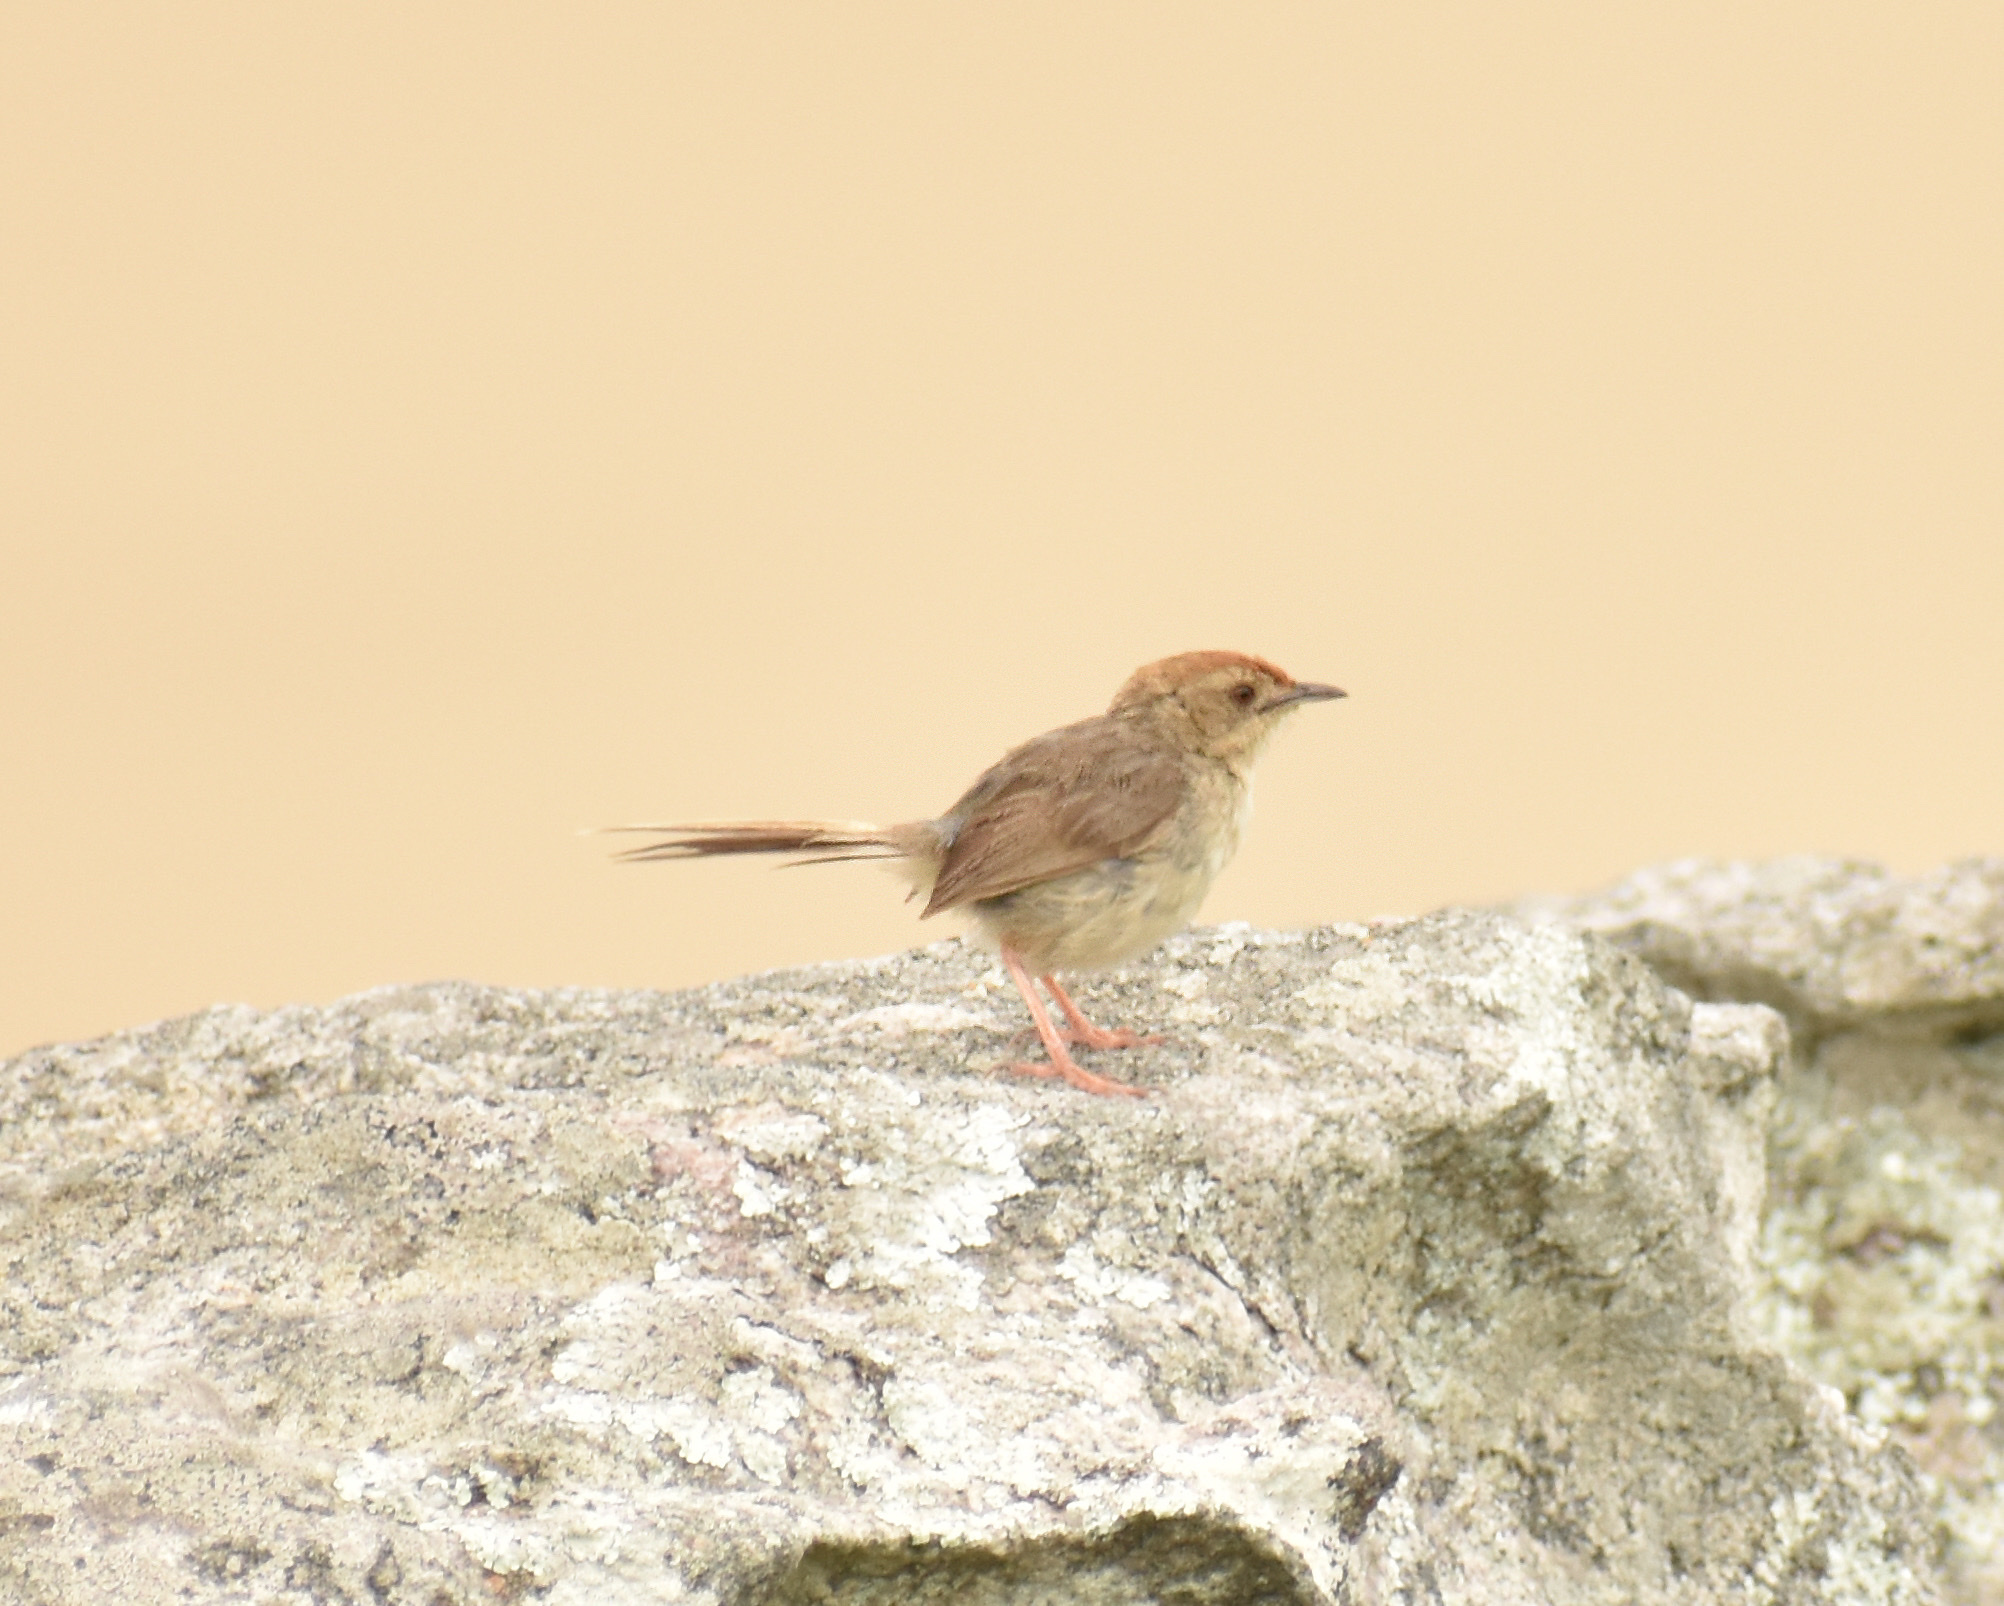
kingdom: Animalia
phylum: Chordata
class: Aves
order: Passeriformes
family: Cisticolidae
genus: Cisticola
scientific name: Cisticola aberrans
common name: Lazy cisticola
